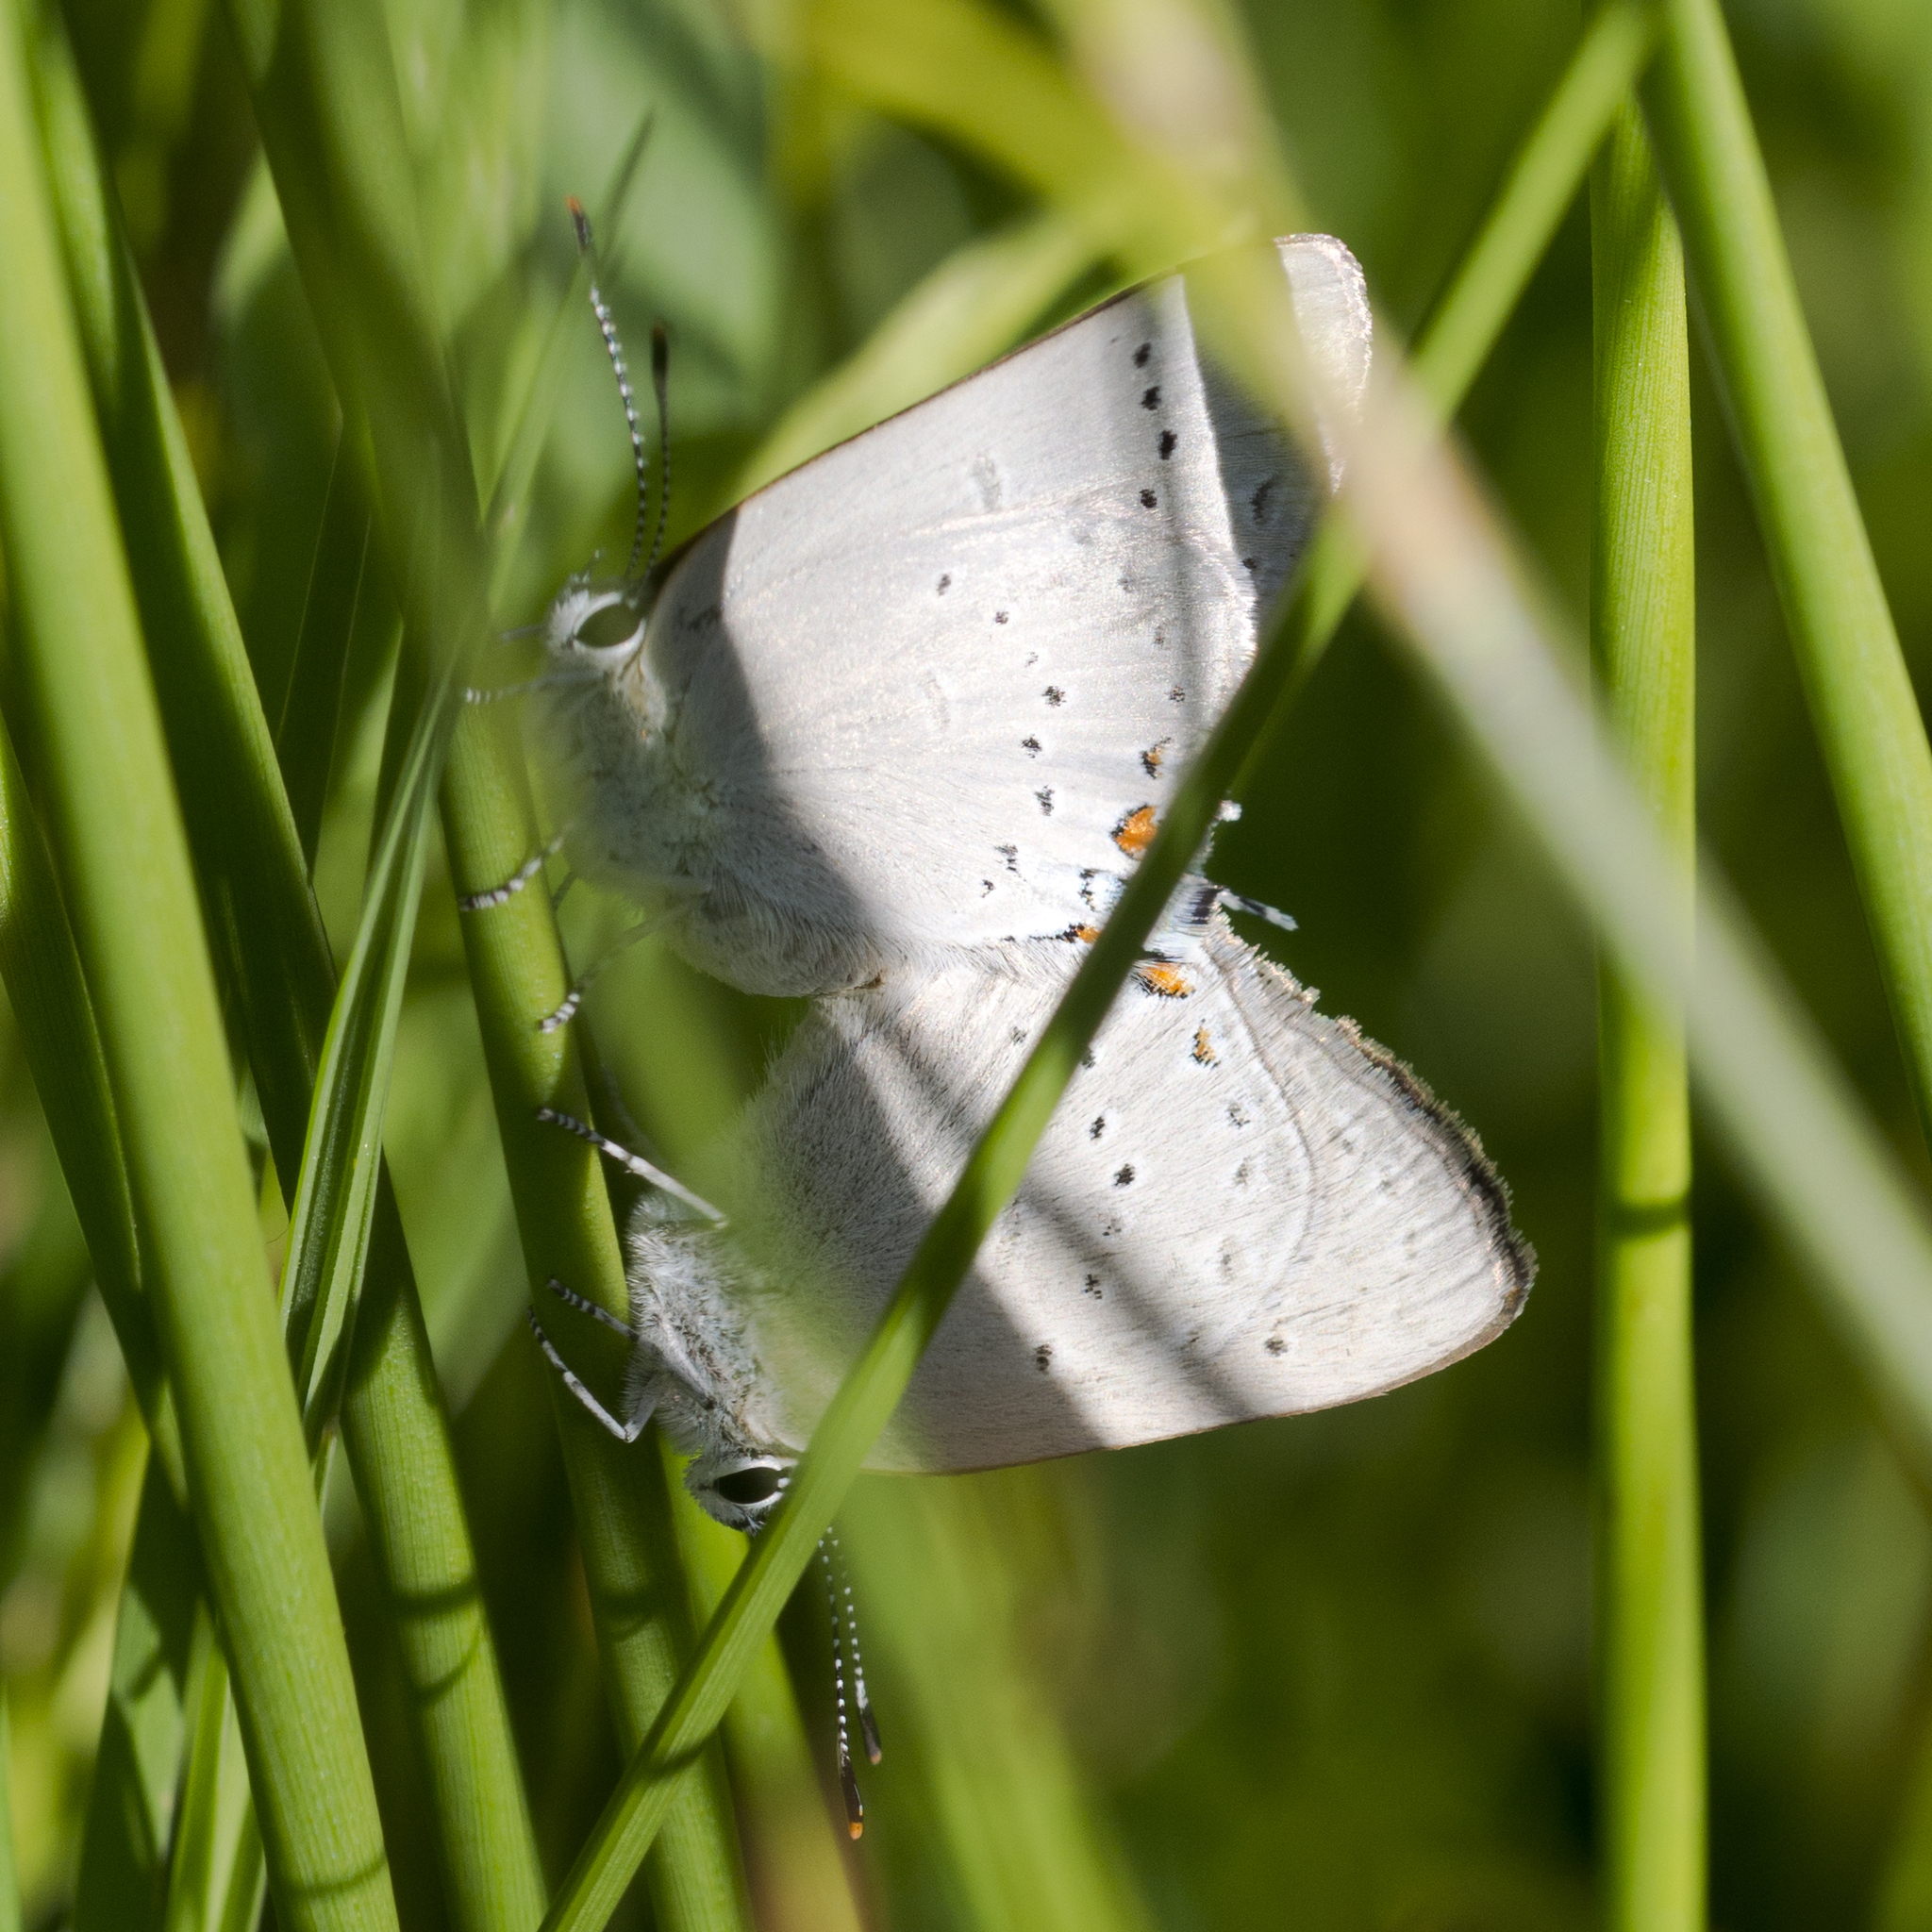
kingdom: Animalia
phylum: Arthropoda
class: Insecta
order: Lepidoptera
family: Lycaenidae
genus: Strymon
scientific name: Strymon sylvinus
